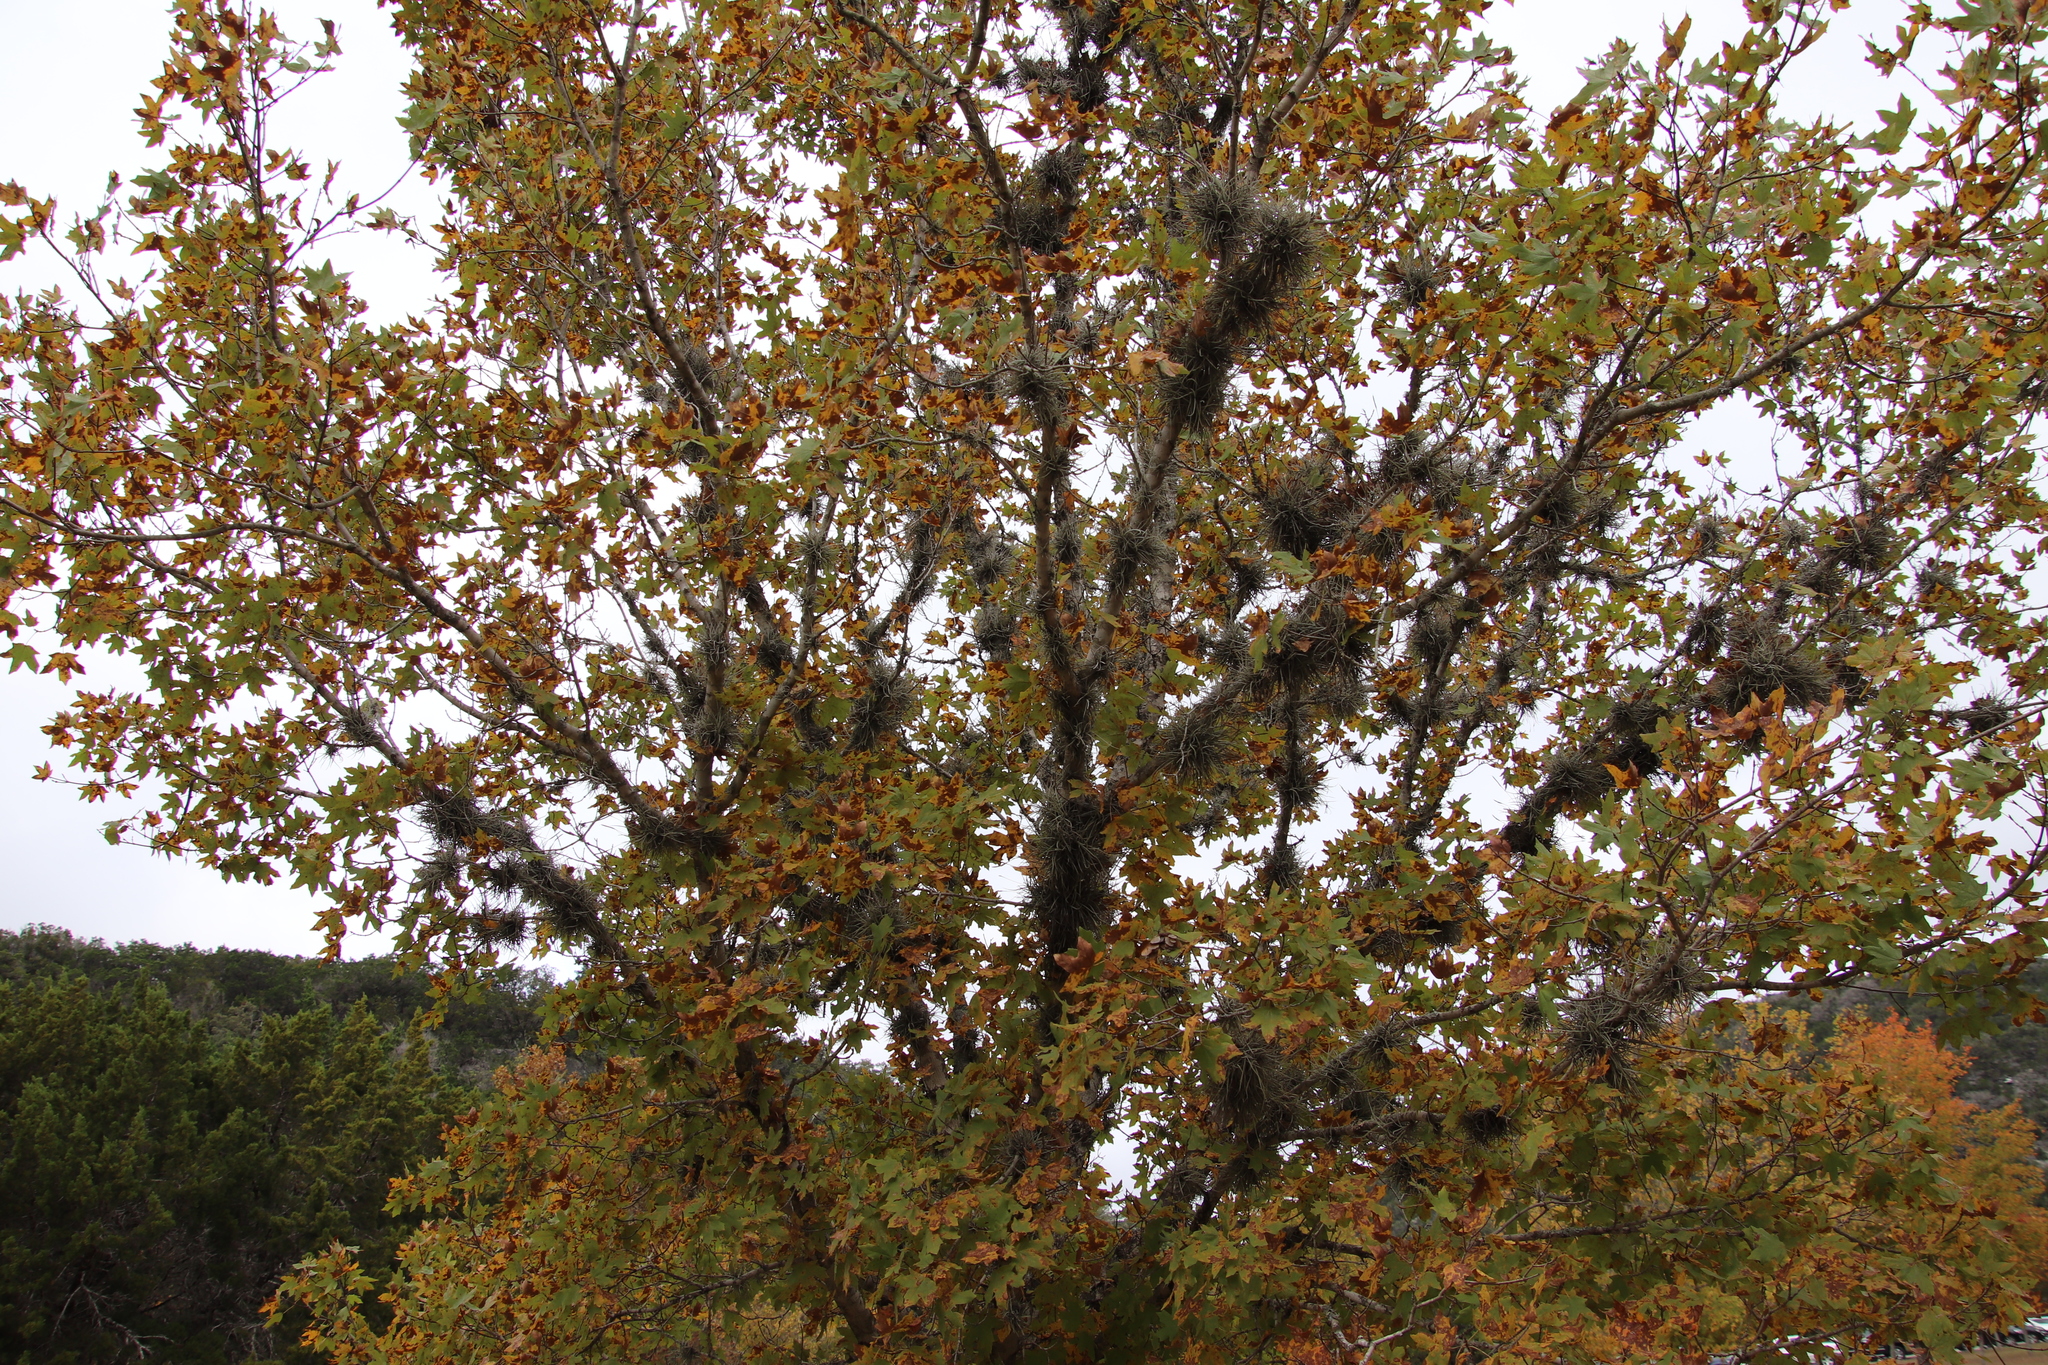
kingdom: Plantae
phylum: Tracheophyta
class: Magnoliopsida
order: Sapindales
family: Sapindaceae
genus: Acer
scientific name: Acer grandidentatum
